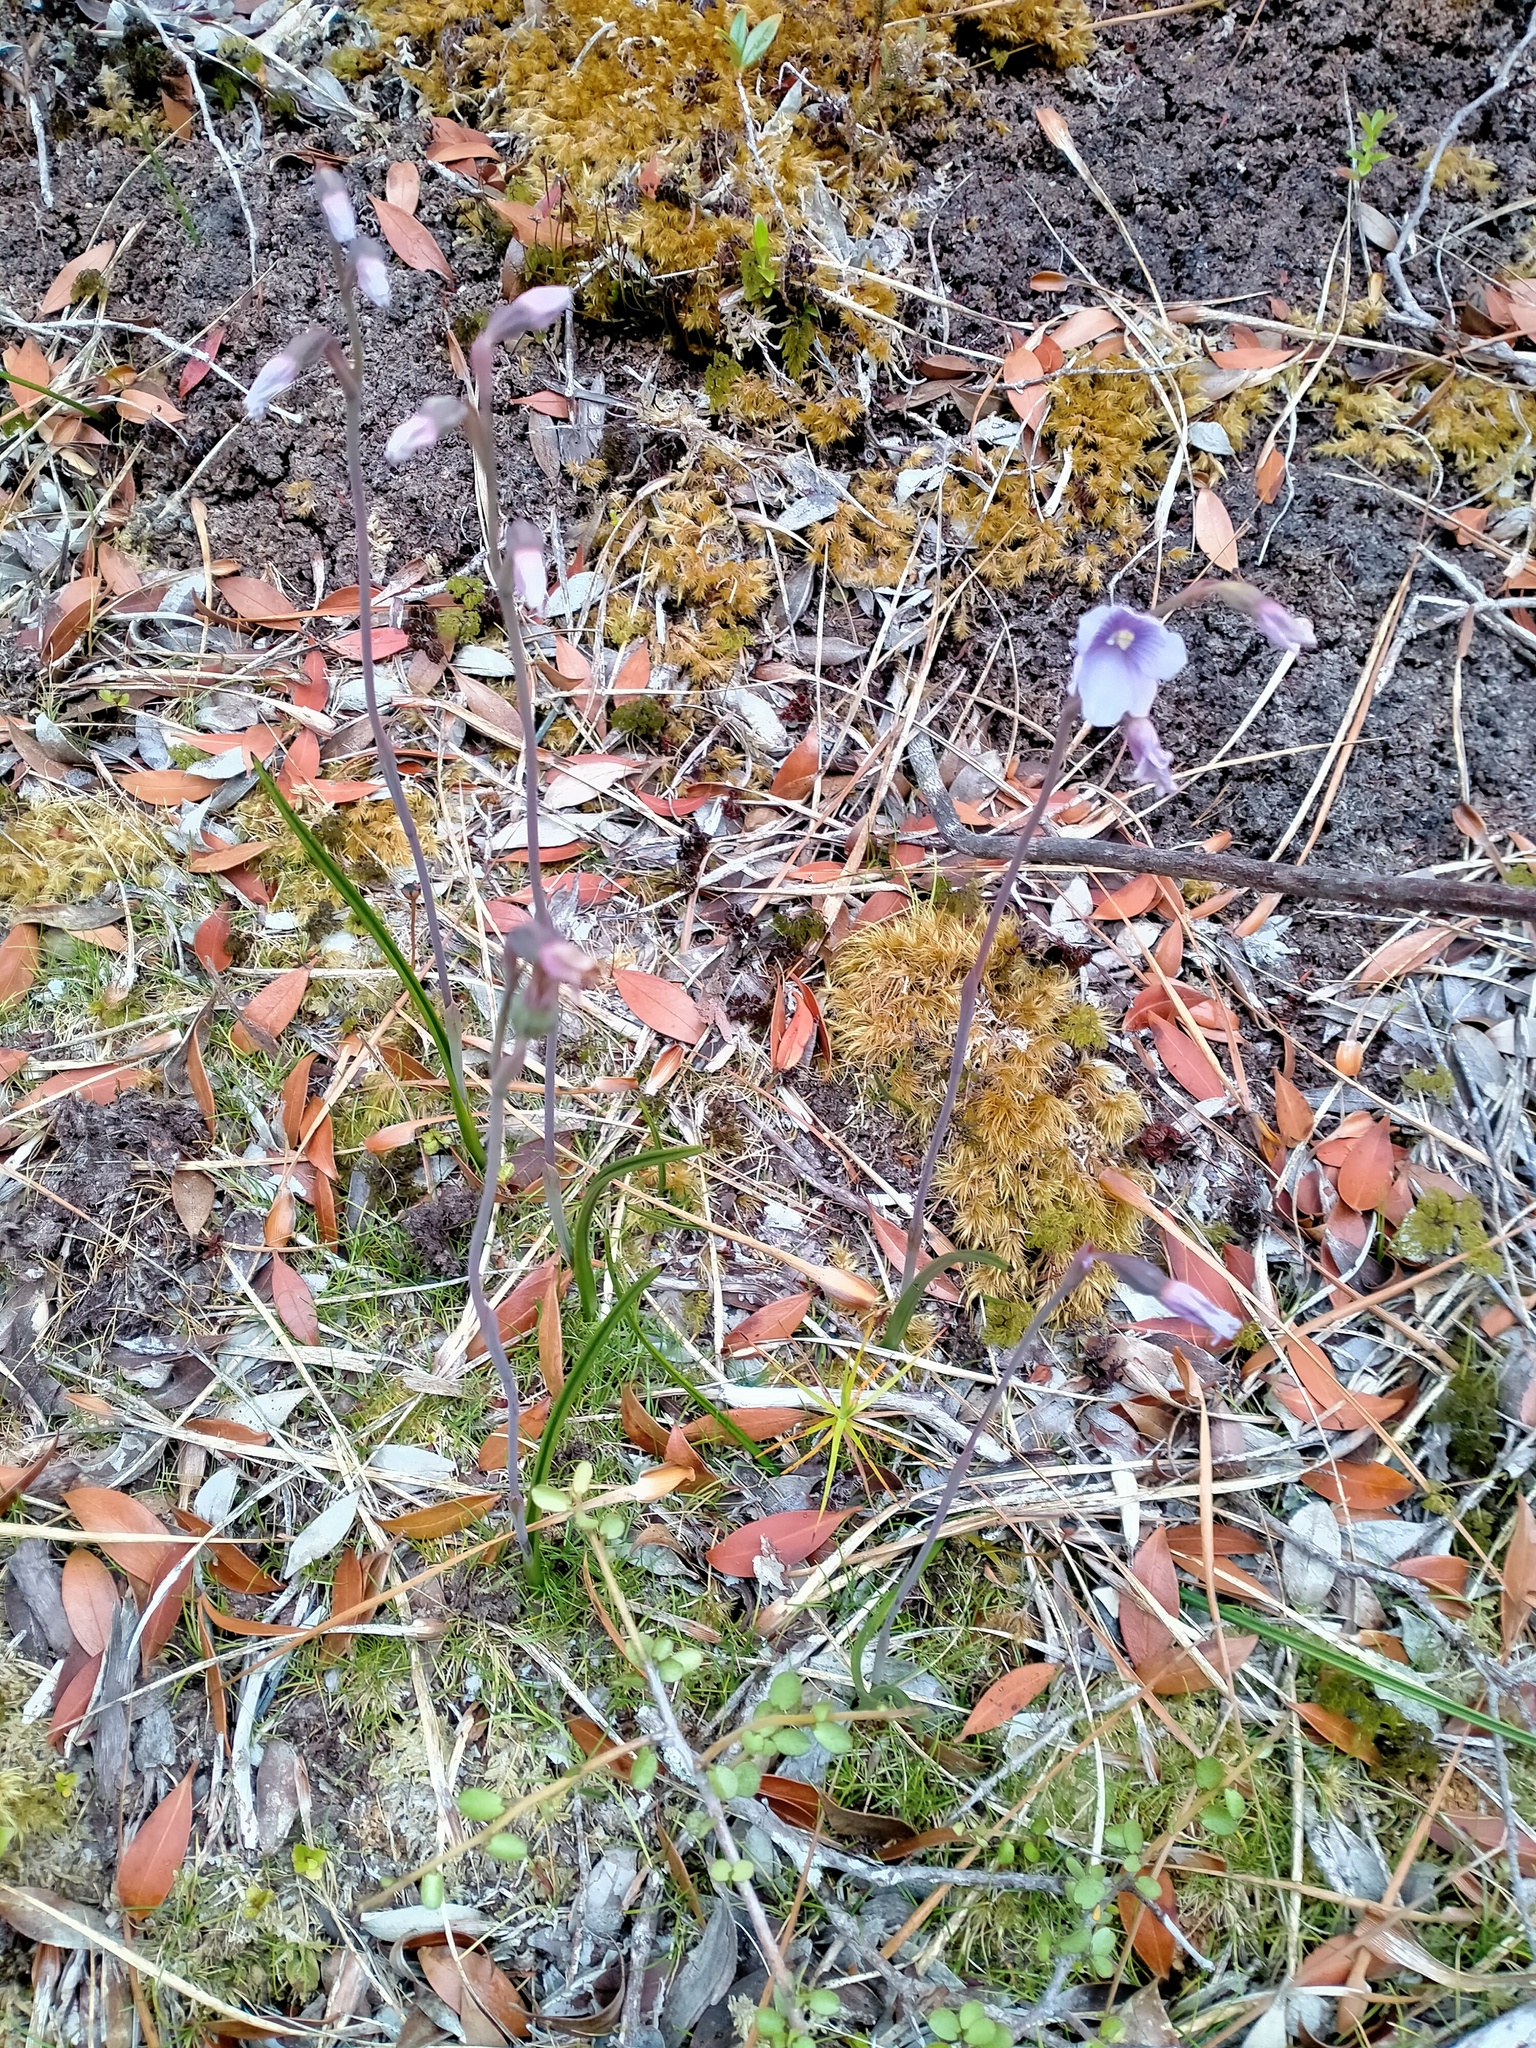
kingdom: Plantae
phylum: Tracheophyta
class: Liliopsida
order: Asparagales
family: Orchidaceae
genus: Thelymitra
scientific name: Thelymitra cyanea
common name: Blue sun-orchid
